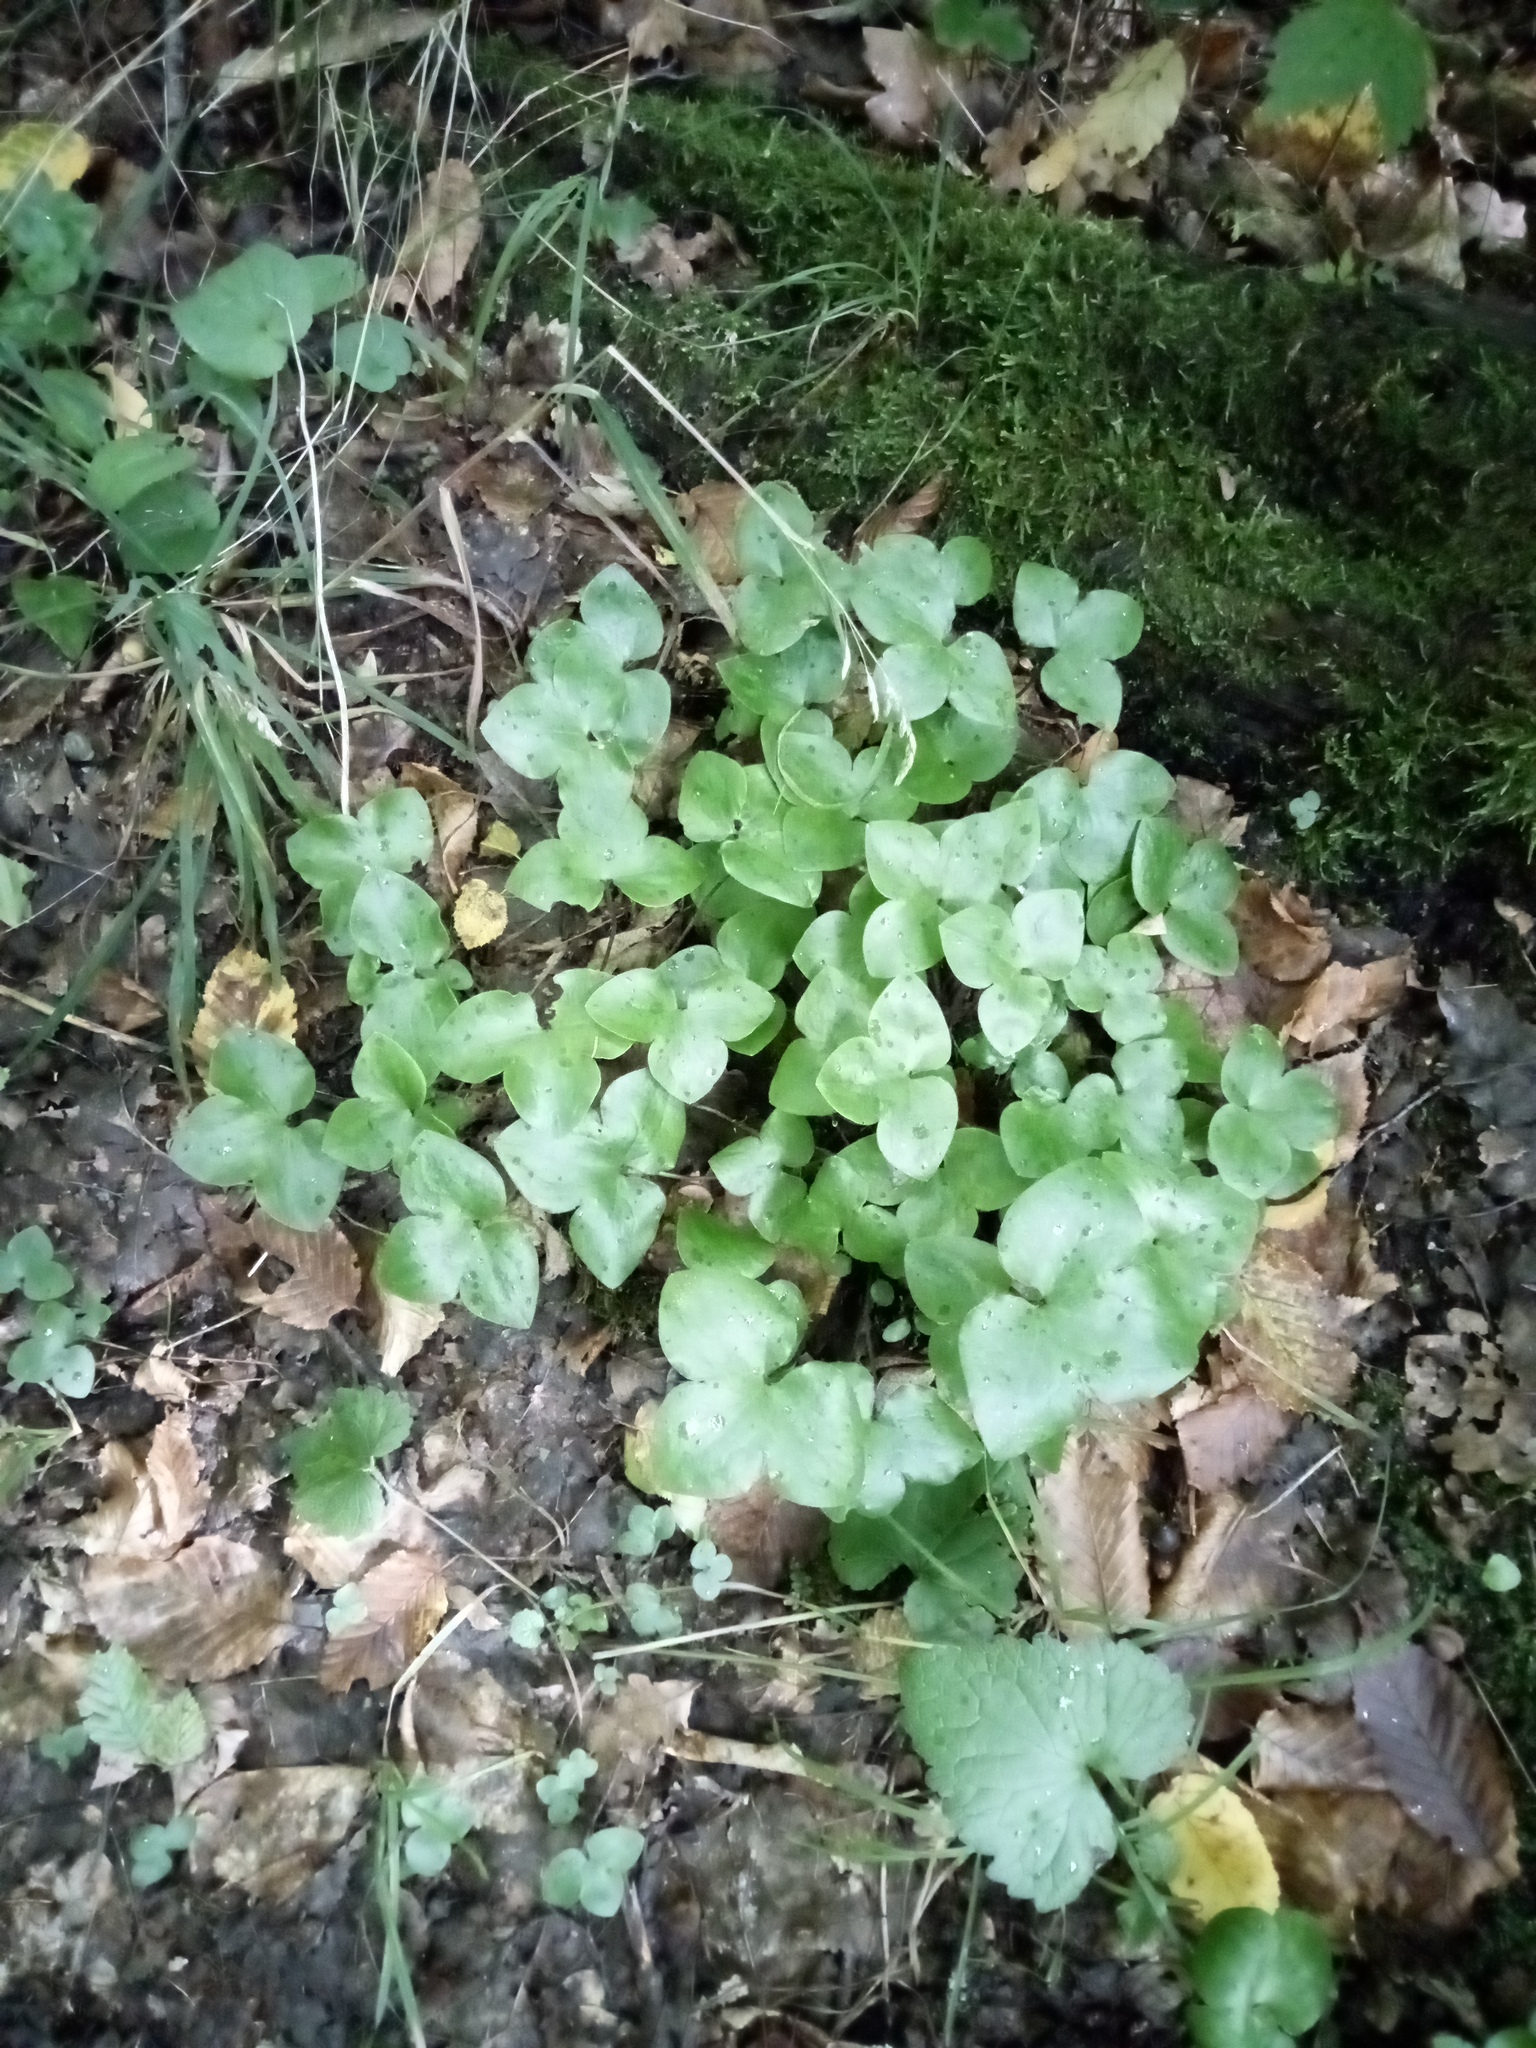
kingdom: Plantae
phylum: Tracheophyta
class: Magnoliopsida
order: Ranunculales
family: Ranunculaceae
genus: Hepatica
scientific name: Hepatica nobilis
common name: Liverleaf
